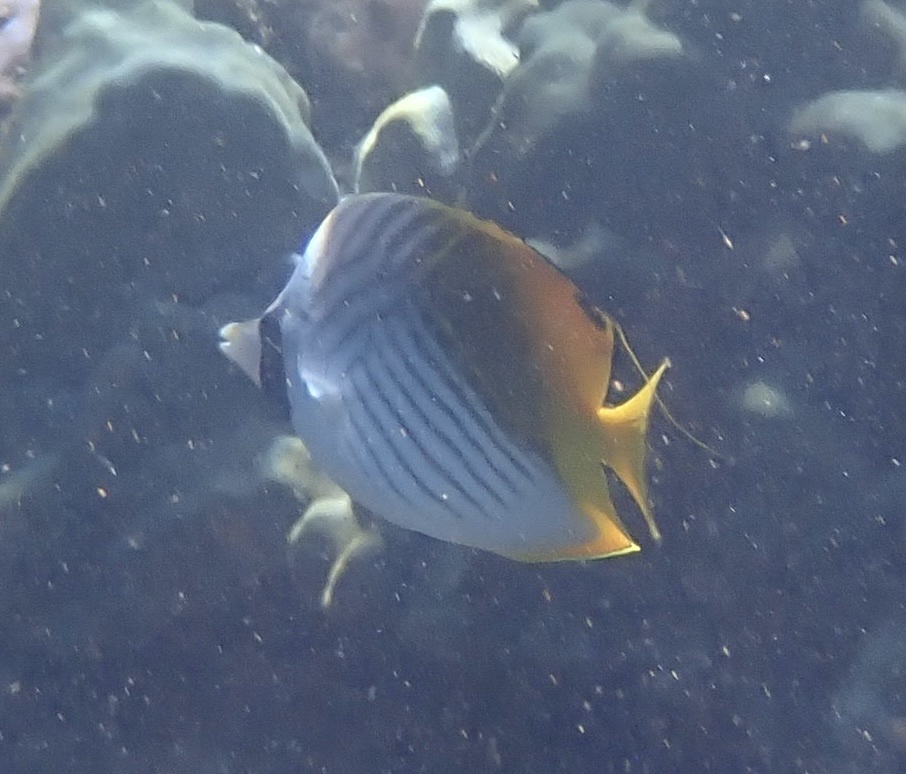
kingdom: Animalia
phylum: Chordata
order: Perciformes
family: Chaetodontidae
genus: Chaetodon
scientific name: Chaetodon auriga
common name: Threadfin butterflyfish
